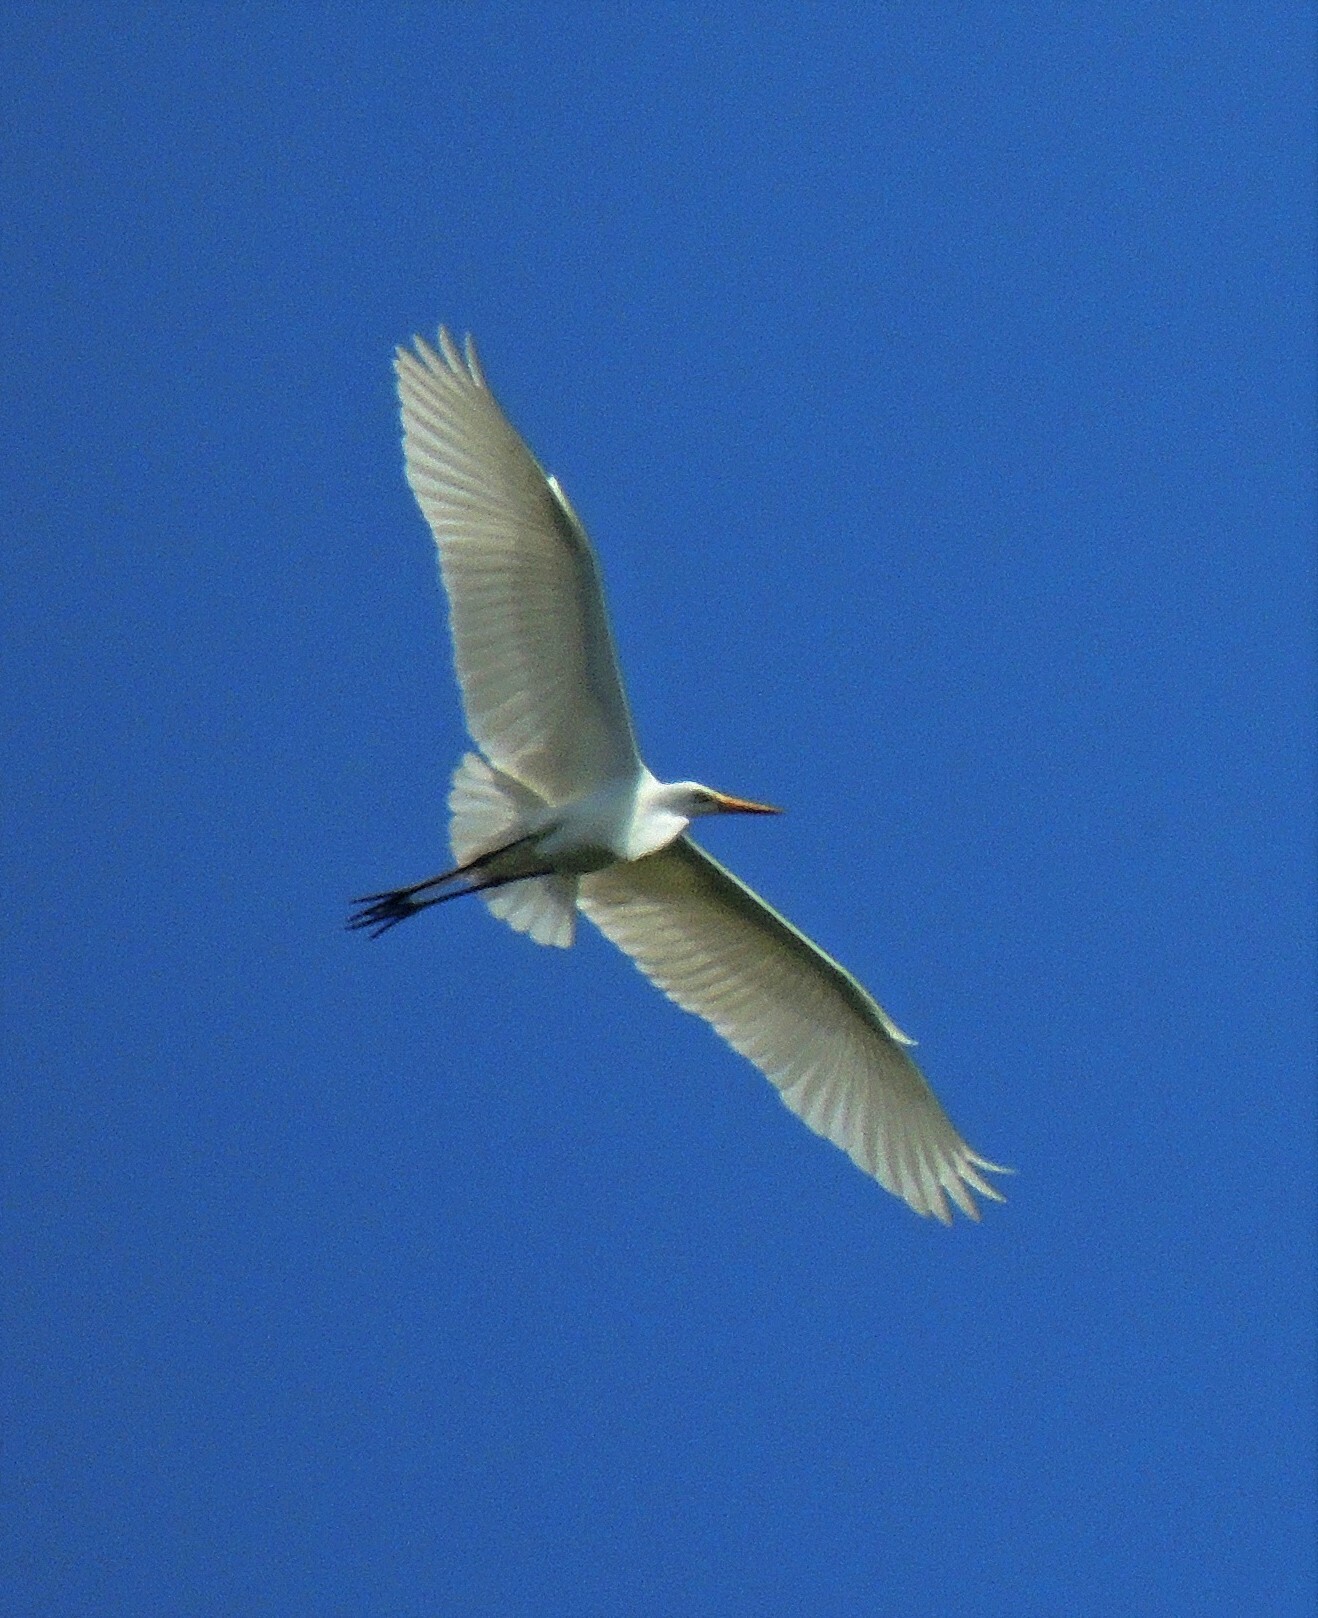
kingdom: Animalia
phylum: Chordata
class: Aves
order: Pelecaniformes
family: Ardeidae
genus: Ardea
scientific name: Ardea alba
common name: Great egret
